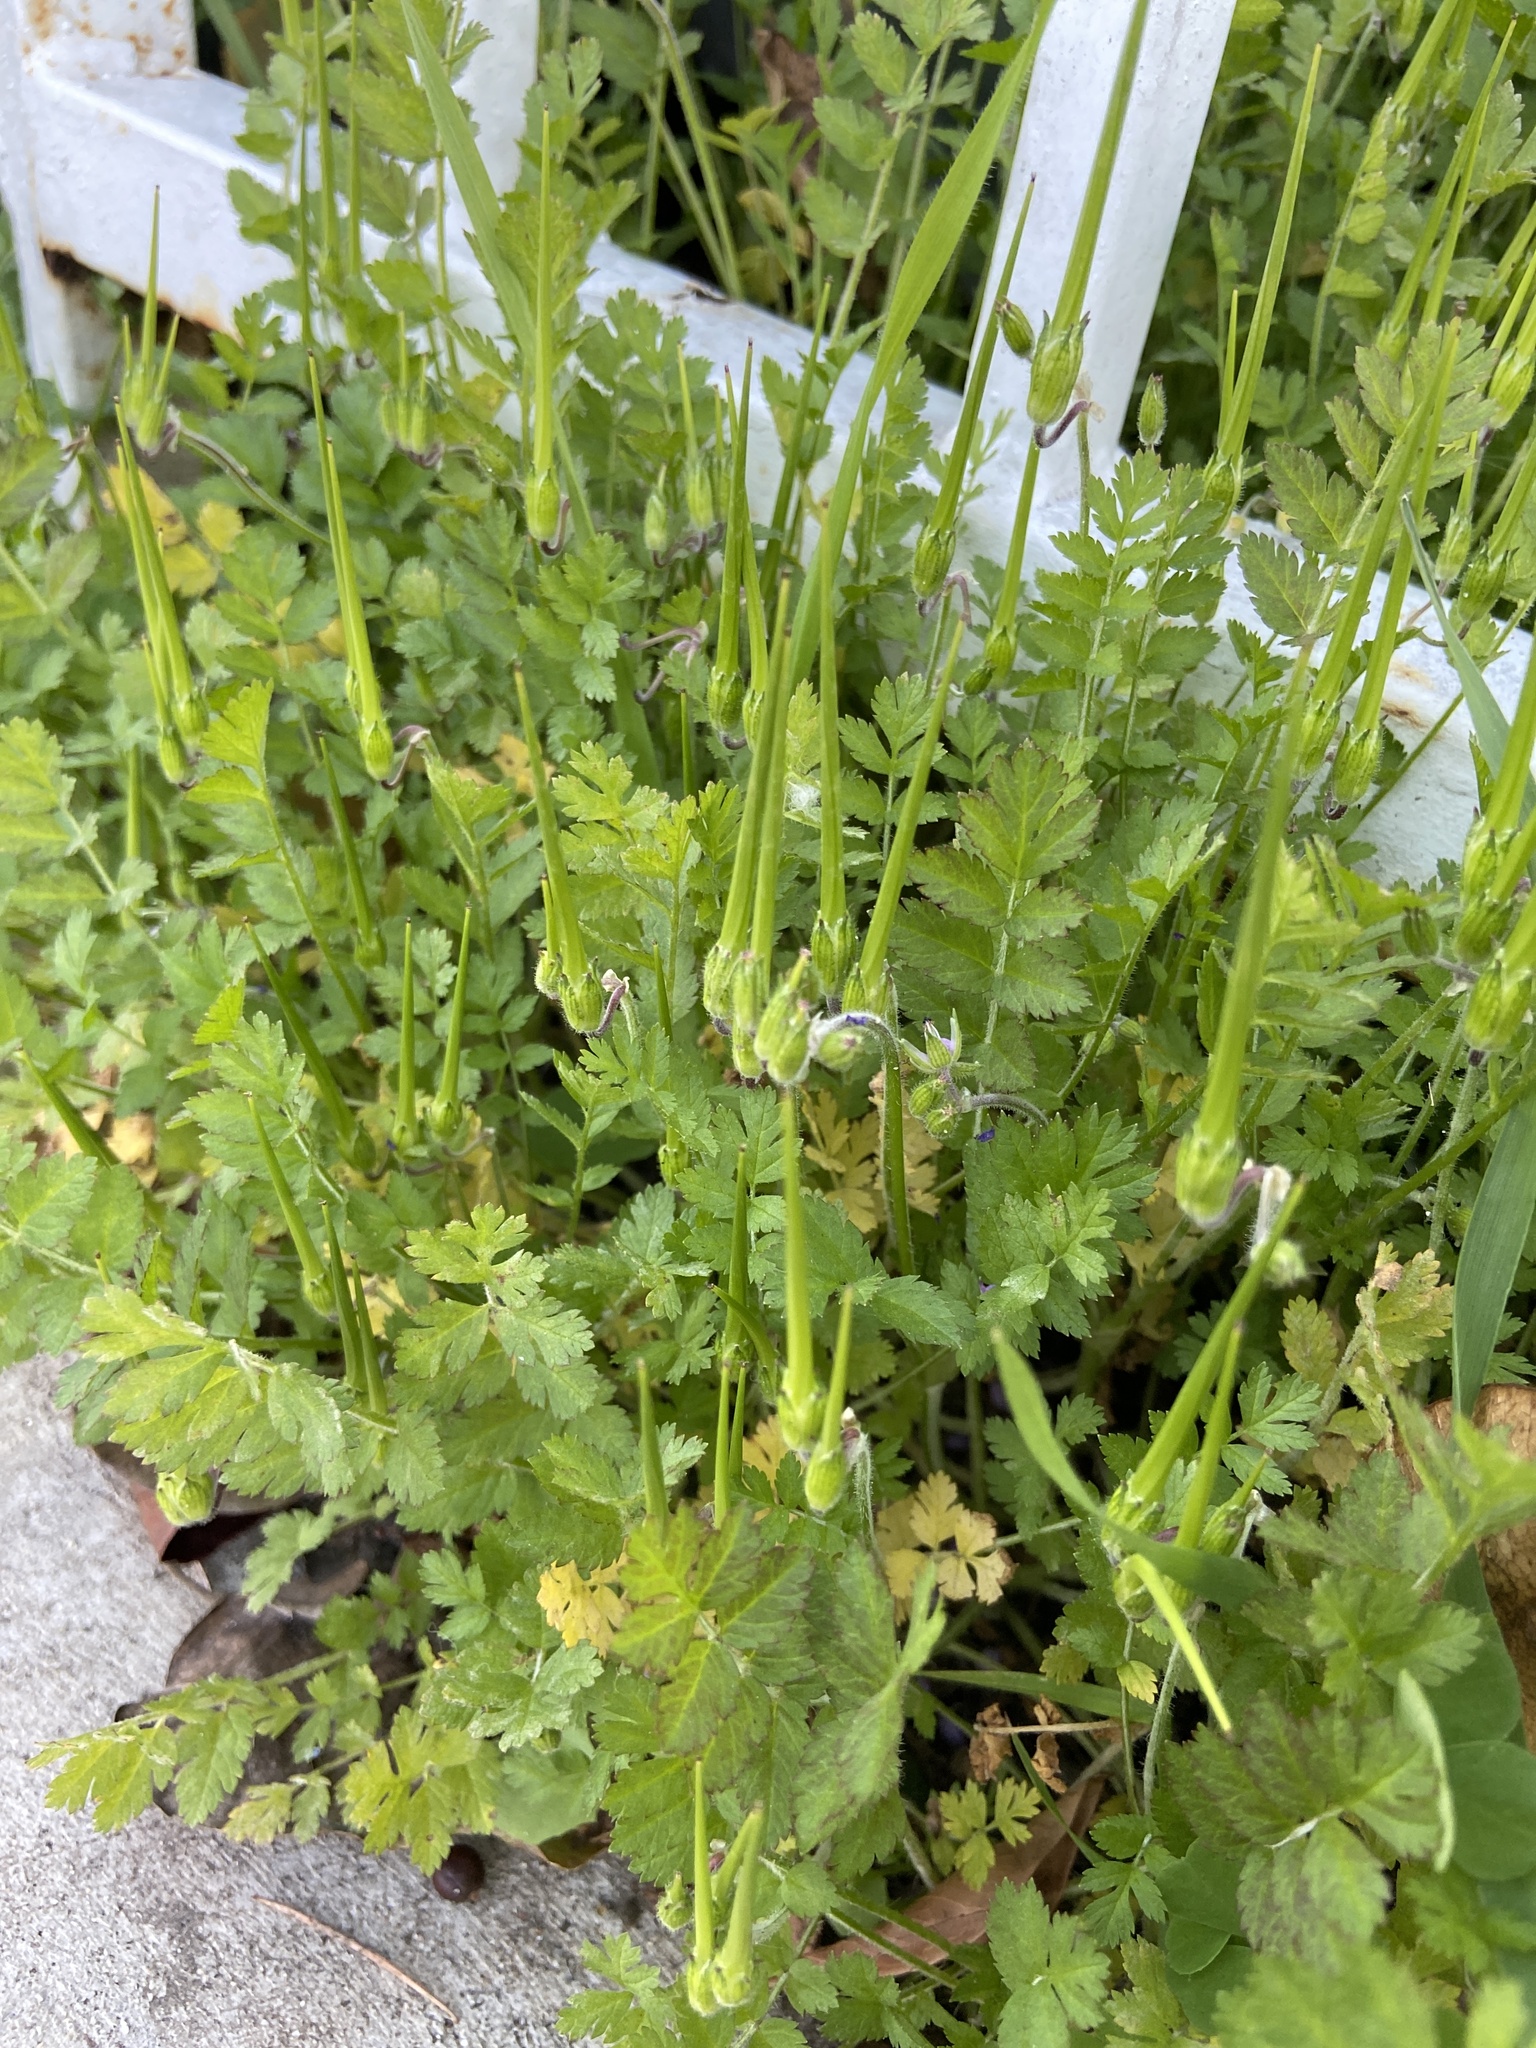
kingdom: Plantae
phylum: Tracheophyta
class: Magnoliopsida
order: Geraniales
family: Geraniaceae
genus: Erodium
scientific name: Erodium moschatum
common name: Musk stork's-bill
